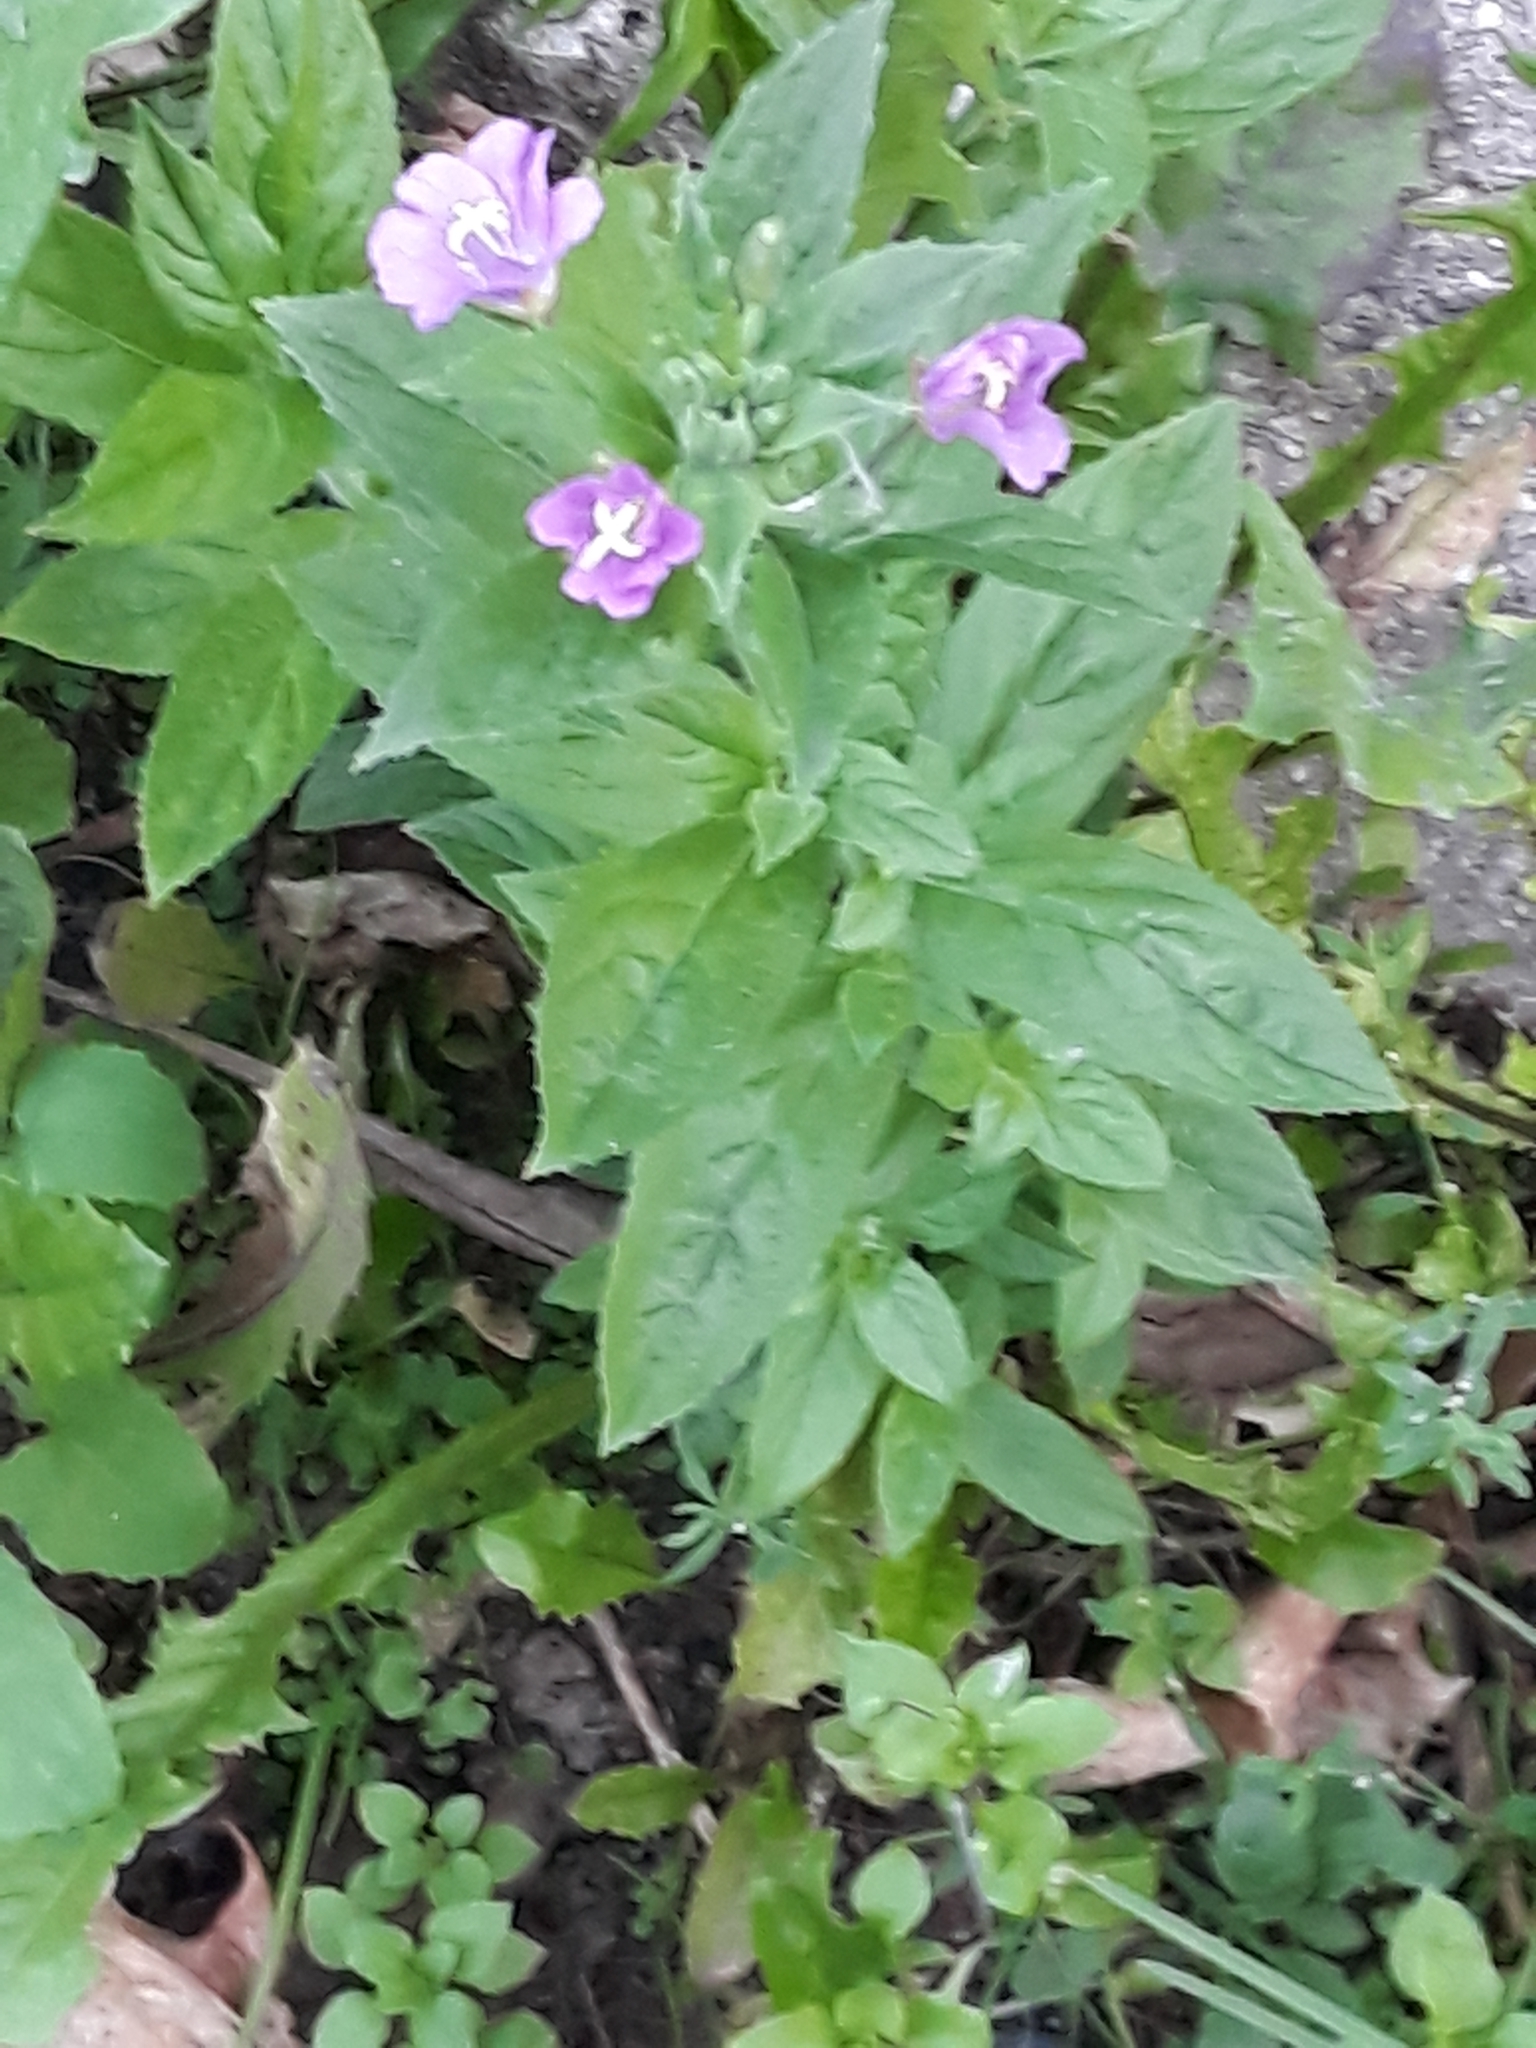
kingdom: Plantae
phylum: Tracheophyta
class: Magnoliopsida
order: Myrtales
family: Onagraceae
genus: Epilobium
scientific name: Epilobium hirsutum
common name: Great willowherb
